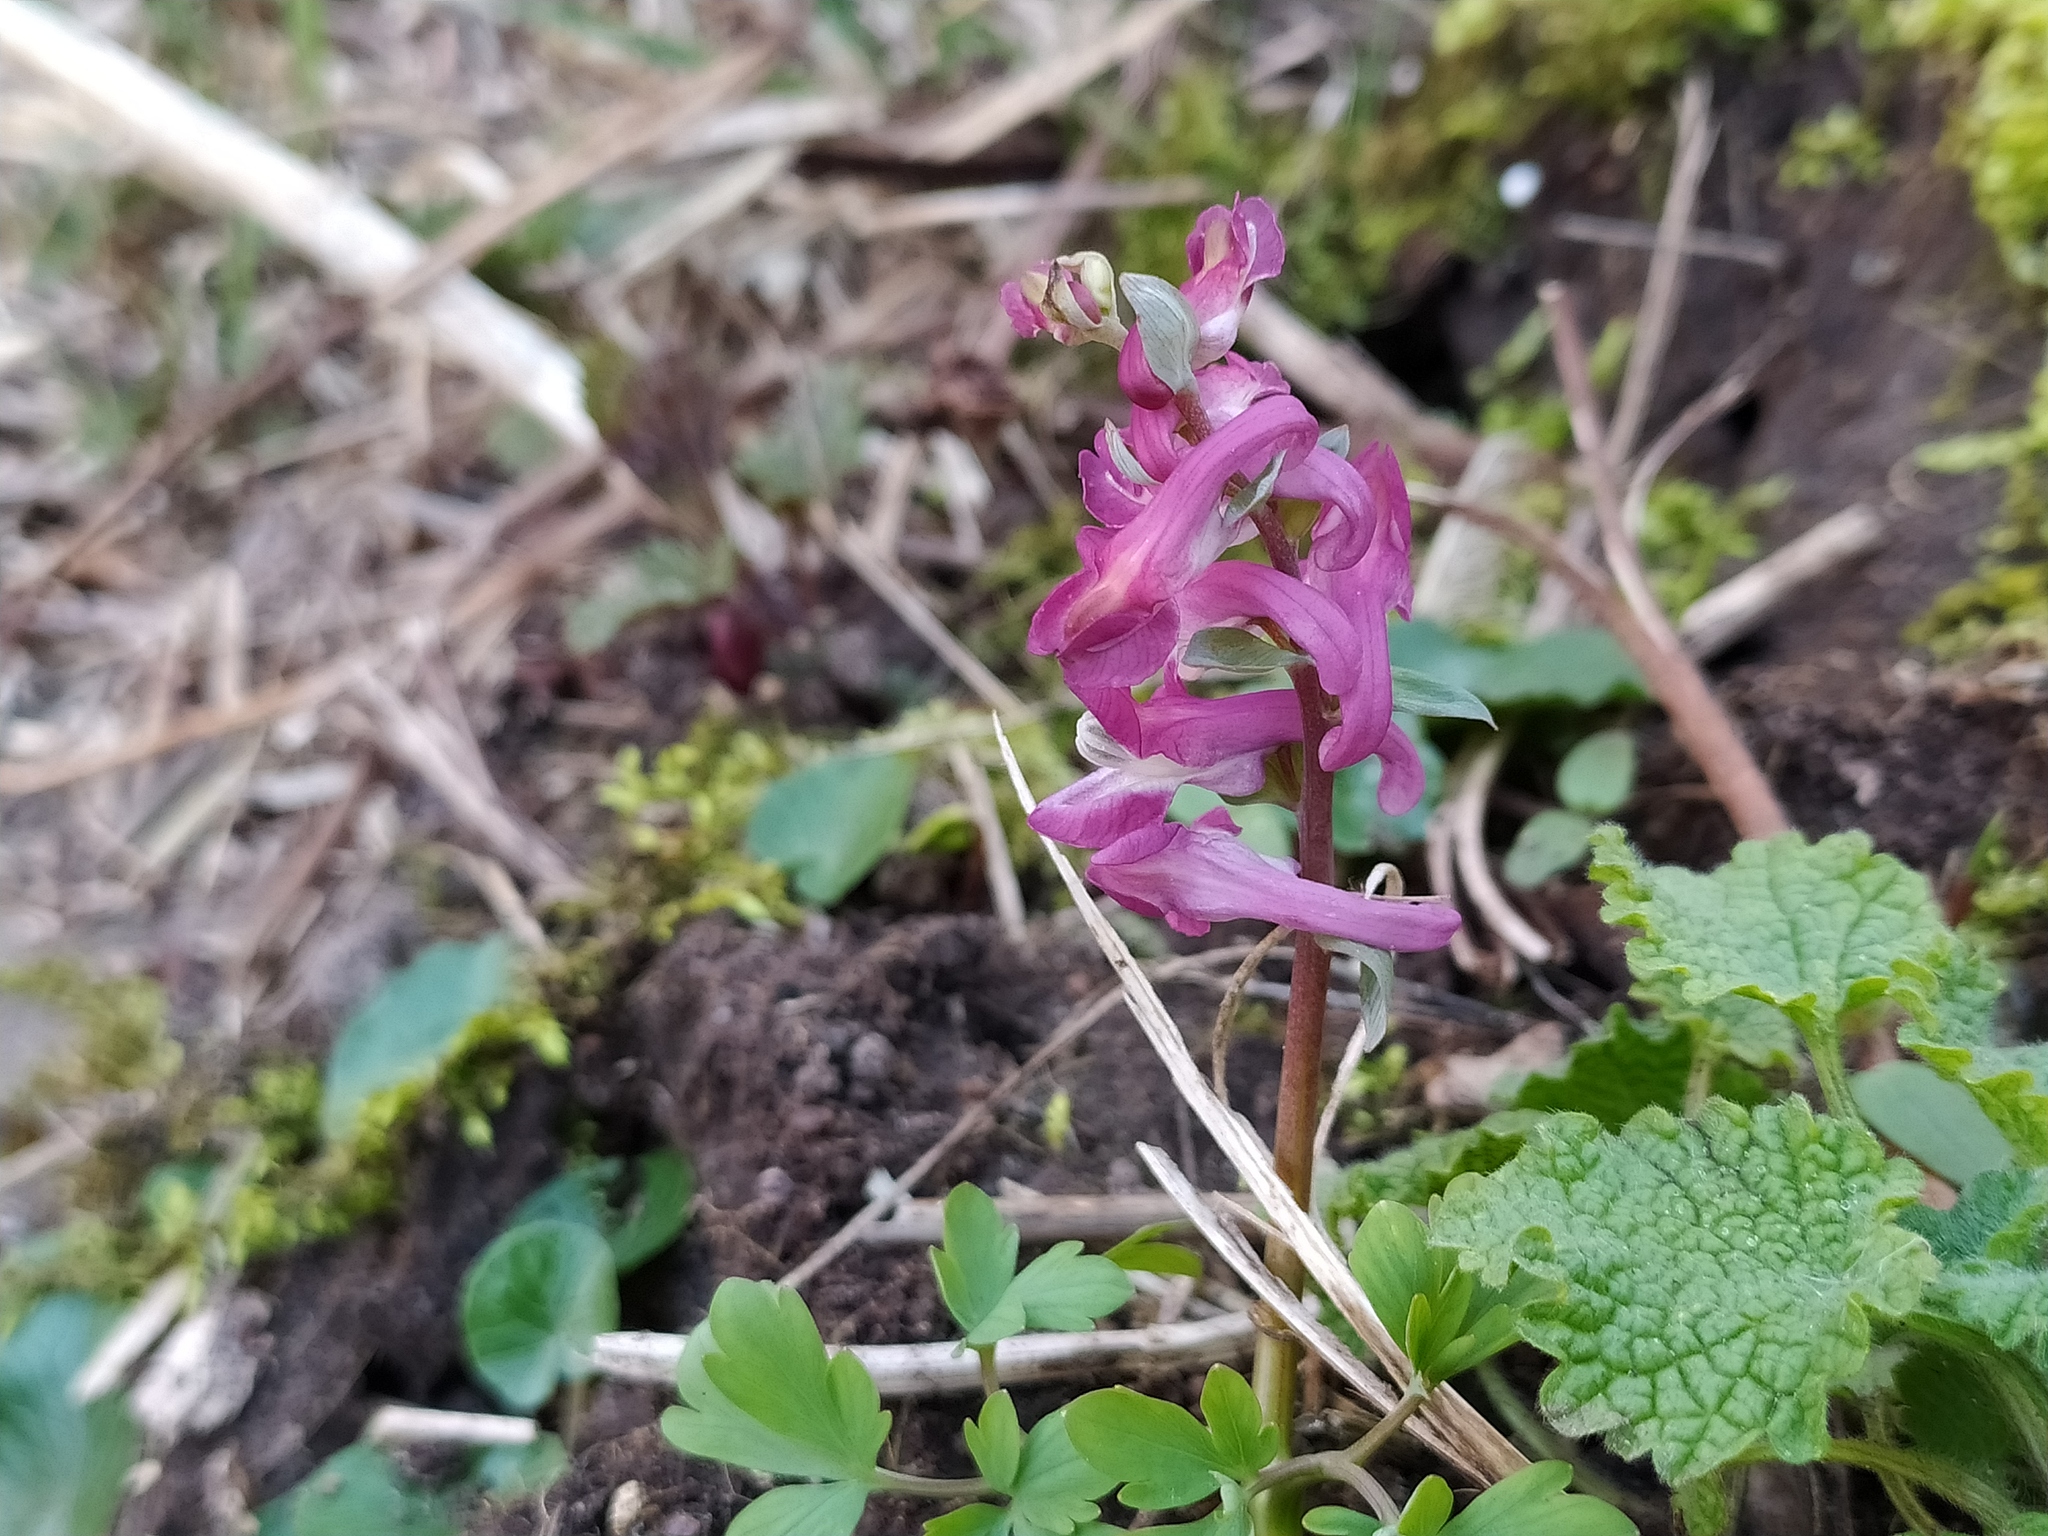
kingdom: Plantae
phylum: Tracheophyta
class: Magnoliopsida
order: Ranunculales
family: Papaveraceae
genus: Corydalis
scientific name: Corydalis cava
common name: Hollowroot
